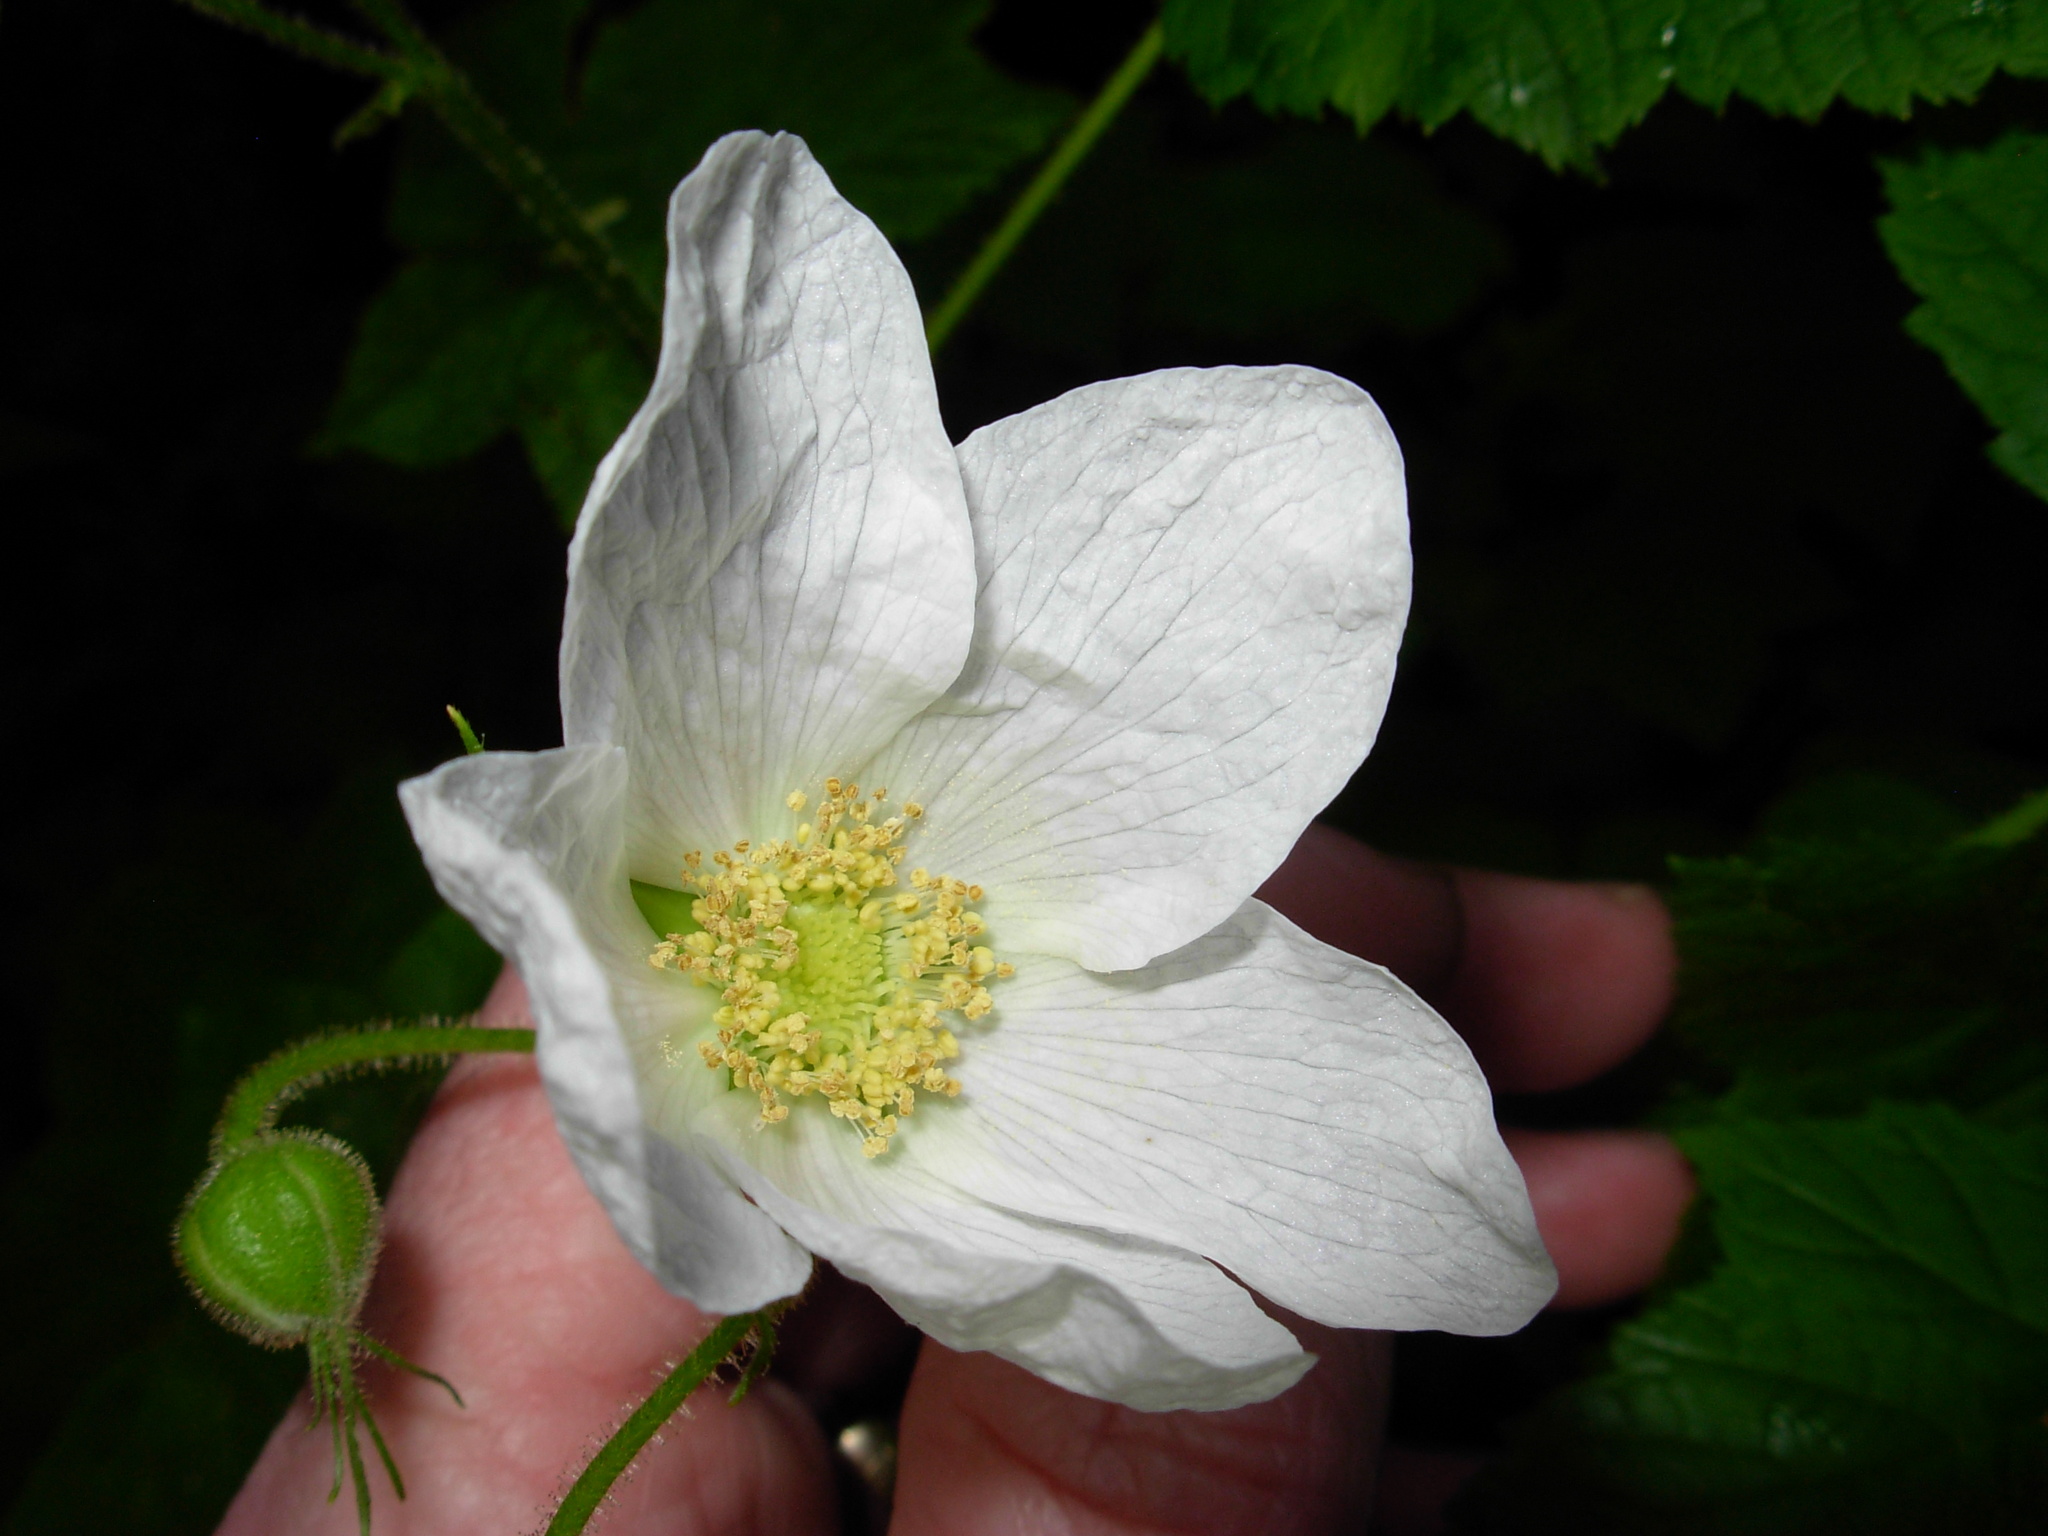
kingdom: Plantae
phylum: Tracheophyta
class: Magnoliopsida
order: Rosales
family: Rosaceae
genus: Rubus
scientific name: Rubus parviflorus
